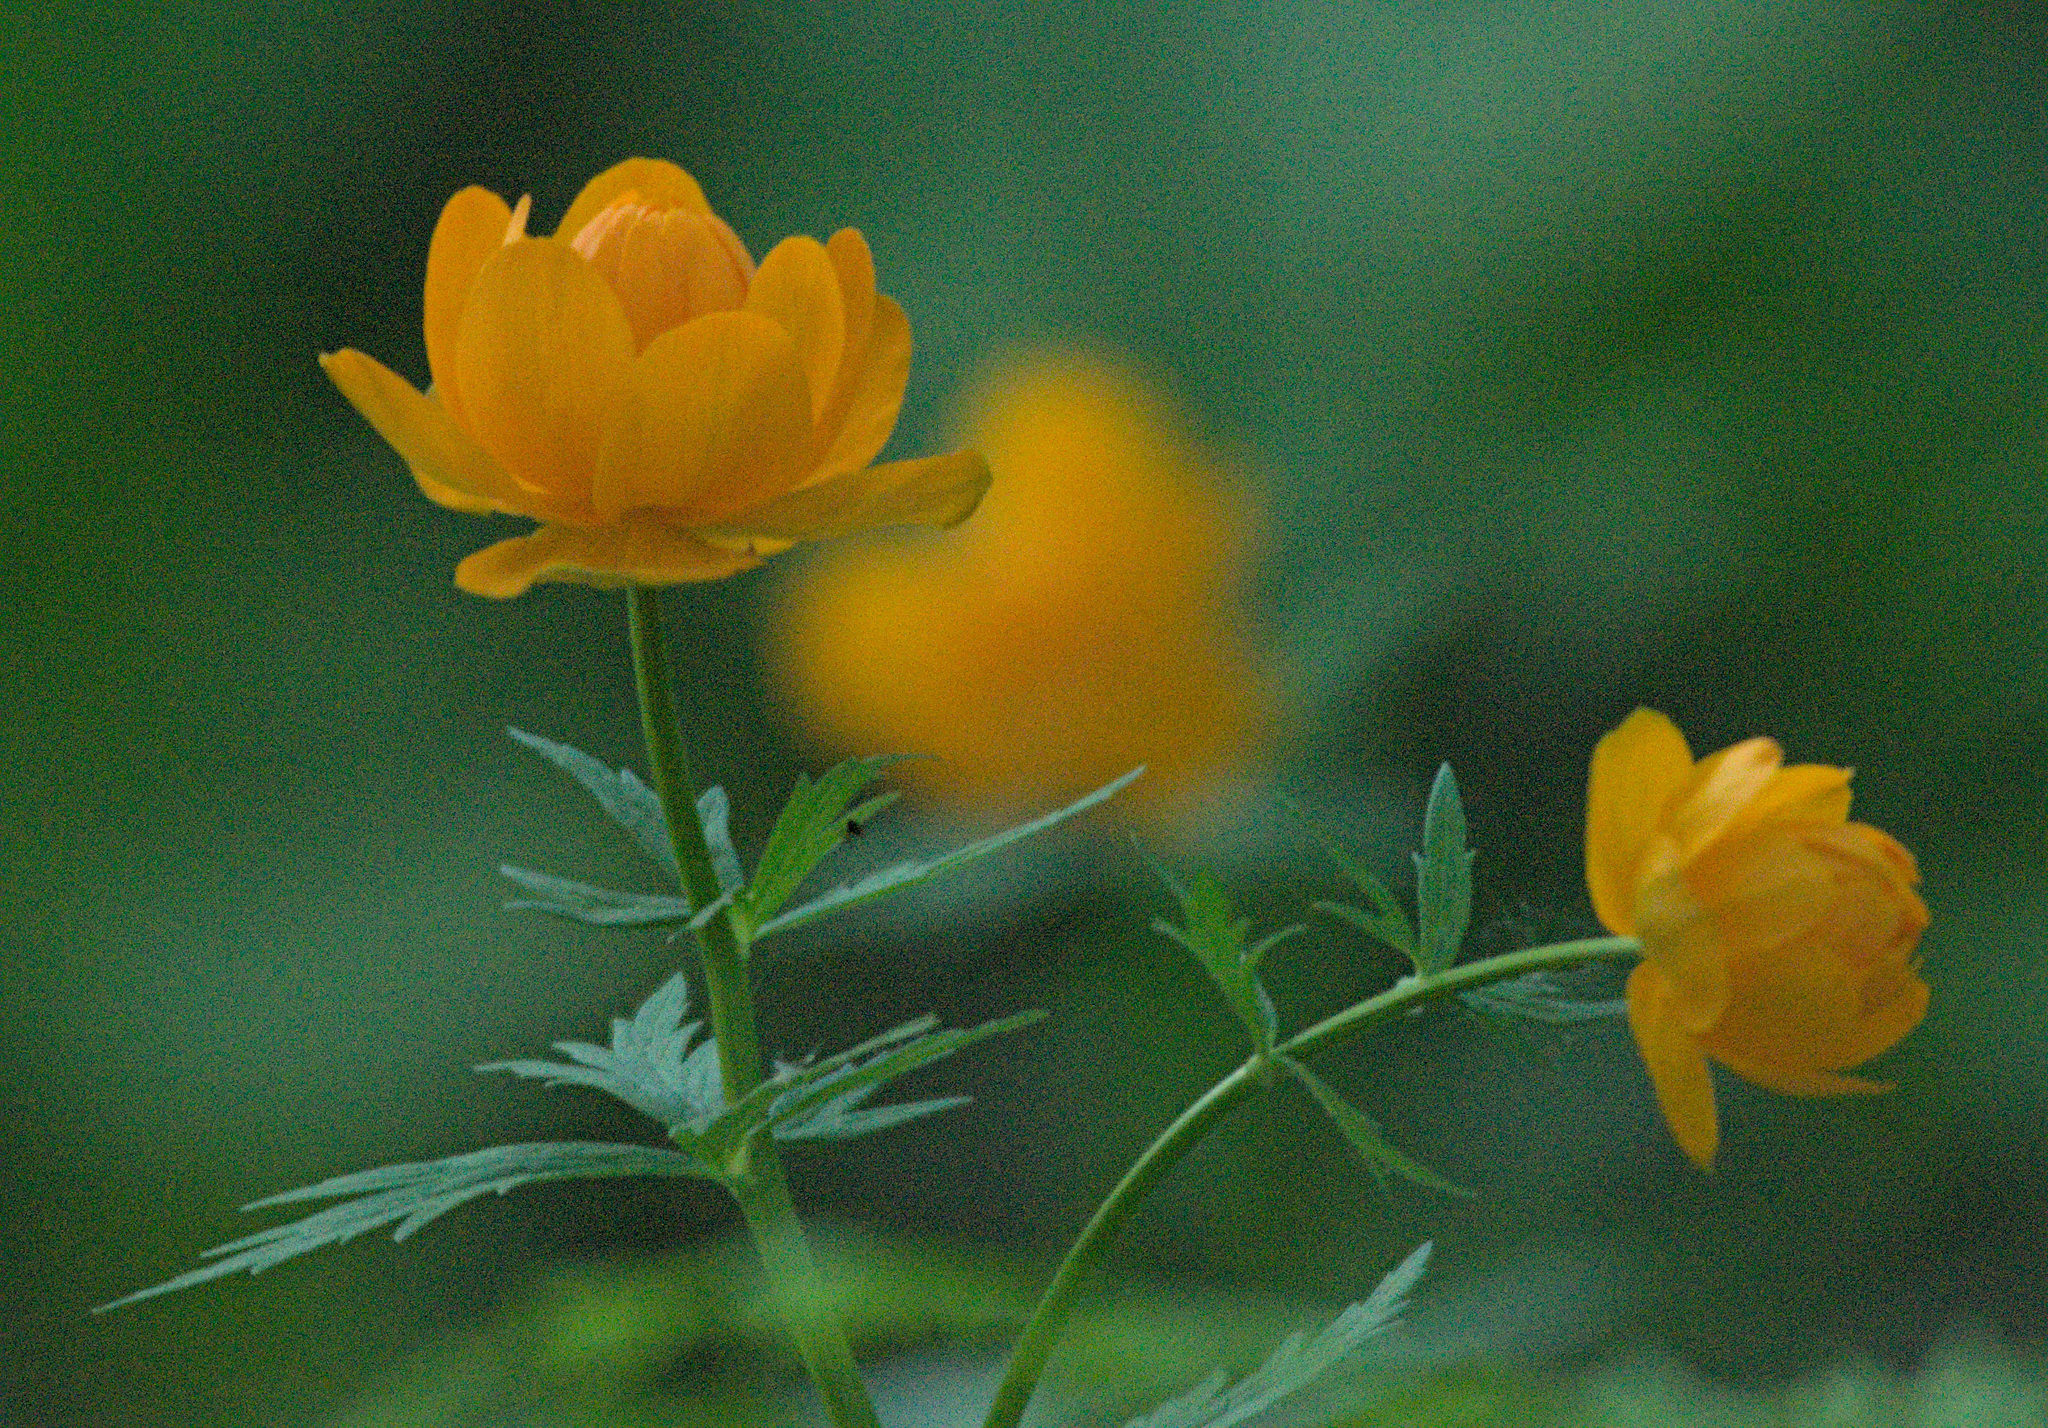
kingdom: Plantae
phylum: Tracheophyta
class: Magnoliopsida
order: Ranunculales
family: Ranunculaceae
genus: Trollius
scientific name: Trollius asiaticus
